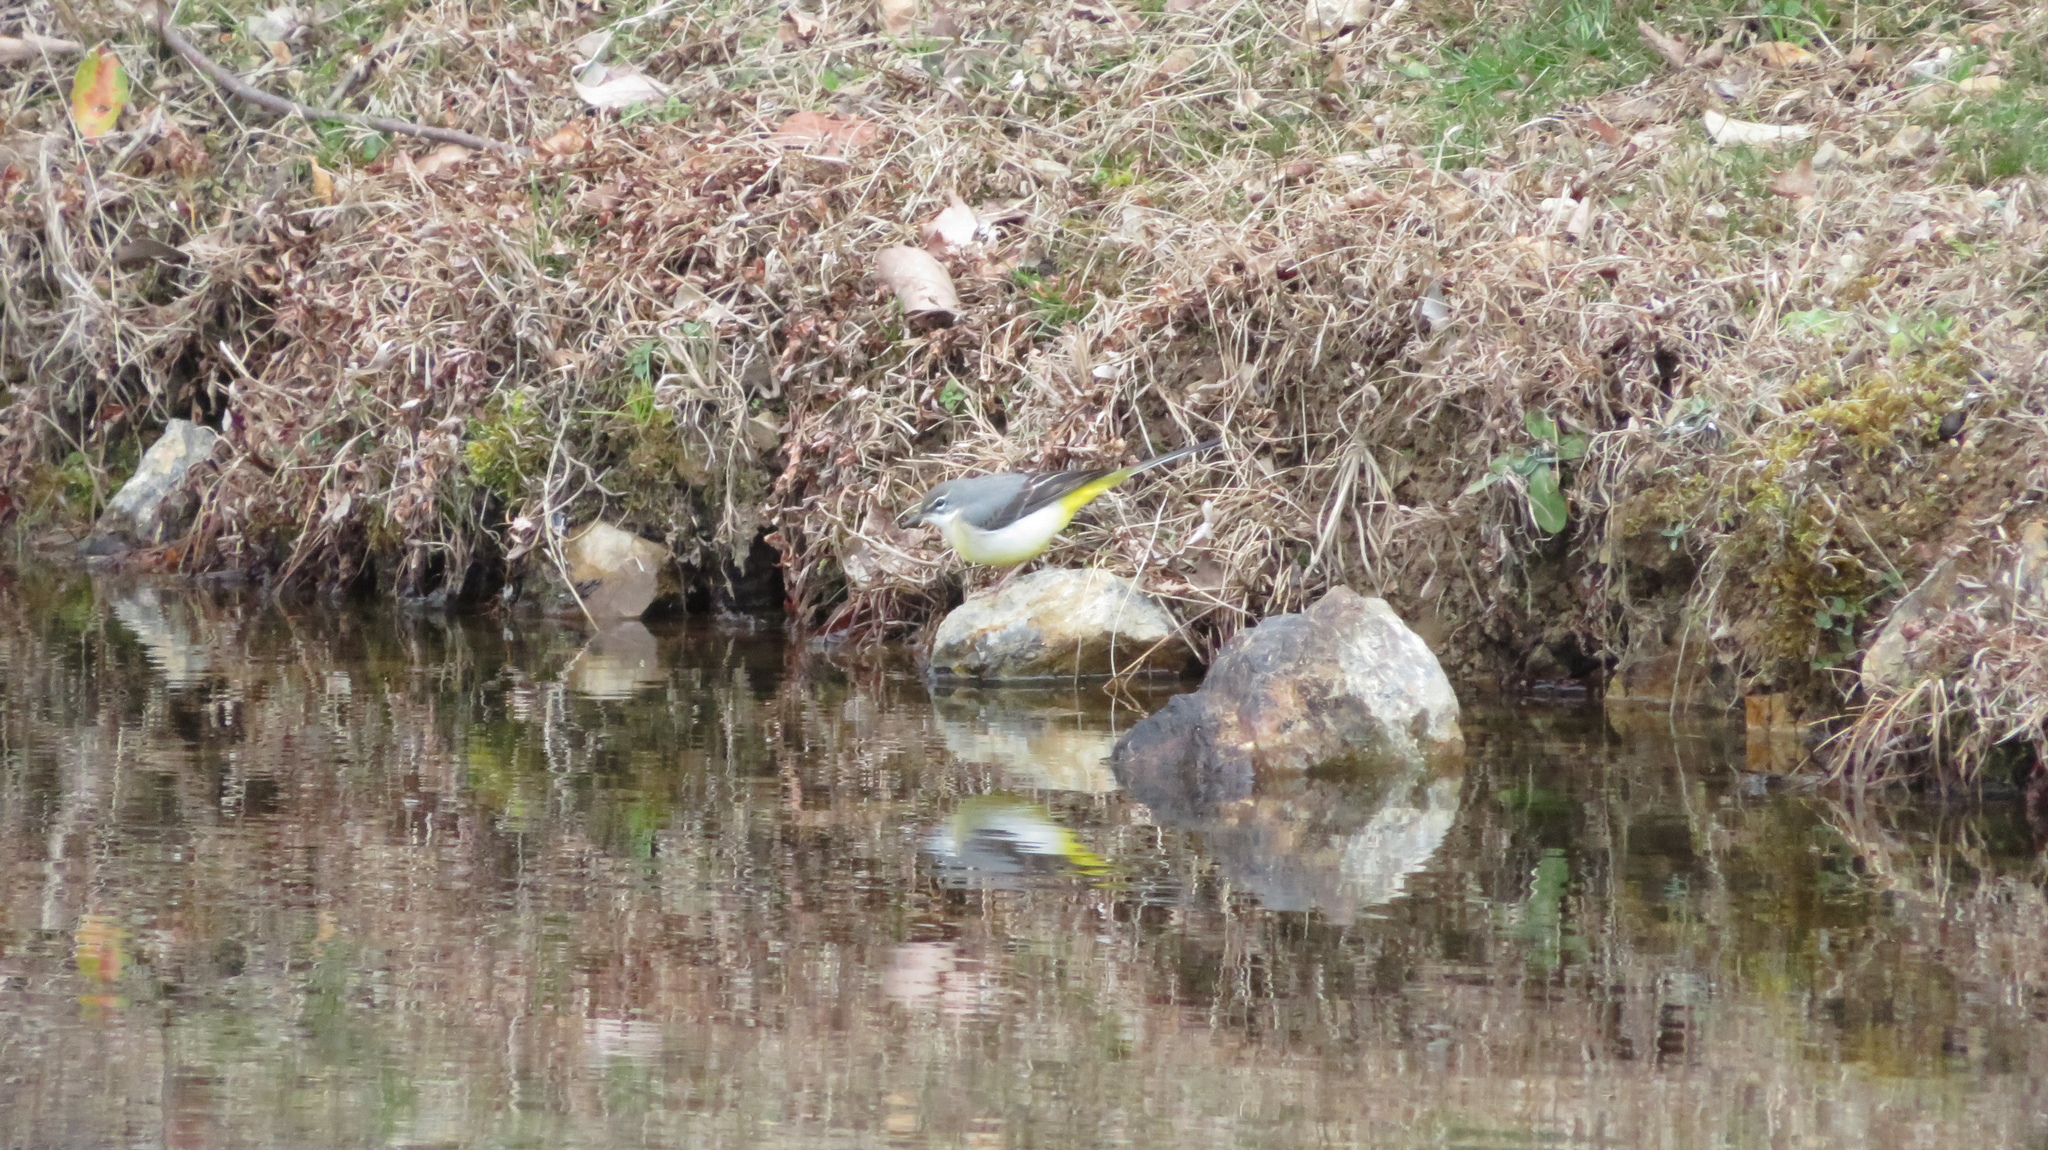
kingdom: Animalia
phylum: Chordata
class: Aves
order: Passeriformes
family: Motacillidae
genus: Motacilla
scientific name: Motacilla cinerea
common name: Grey wagtail
